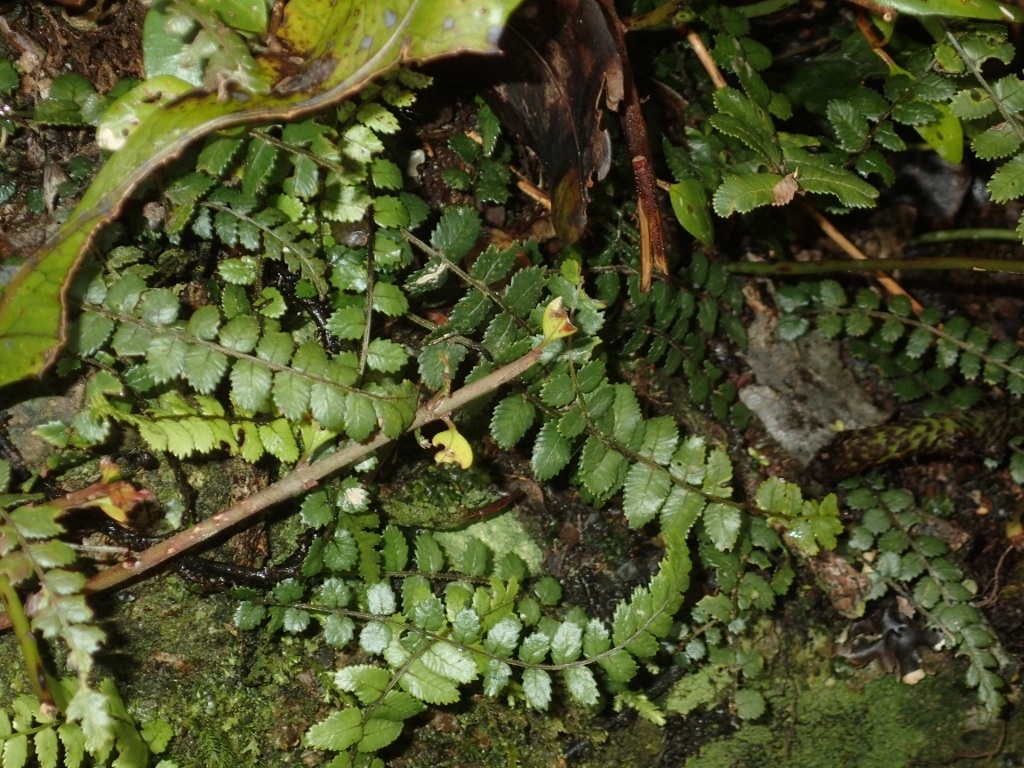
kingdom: Plantae
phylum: Tracheophyta
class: Polypodiopsida
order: Polypodiales
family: Blechnaceae
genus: Icarus
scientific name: Icarus filiformis
